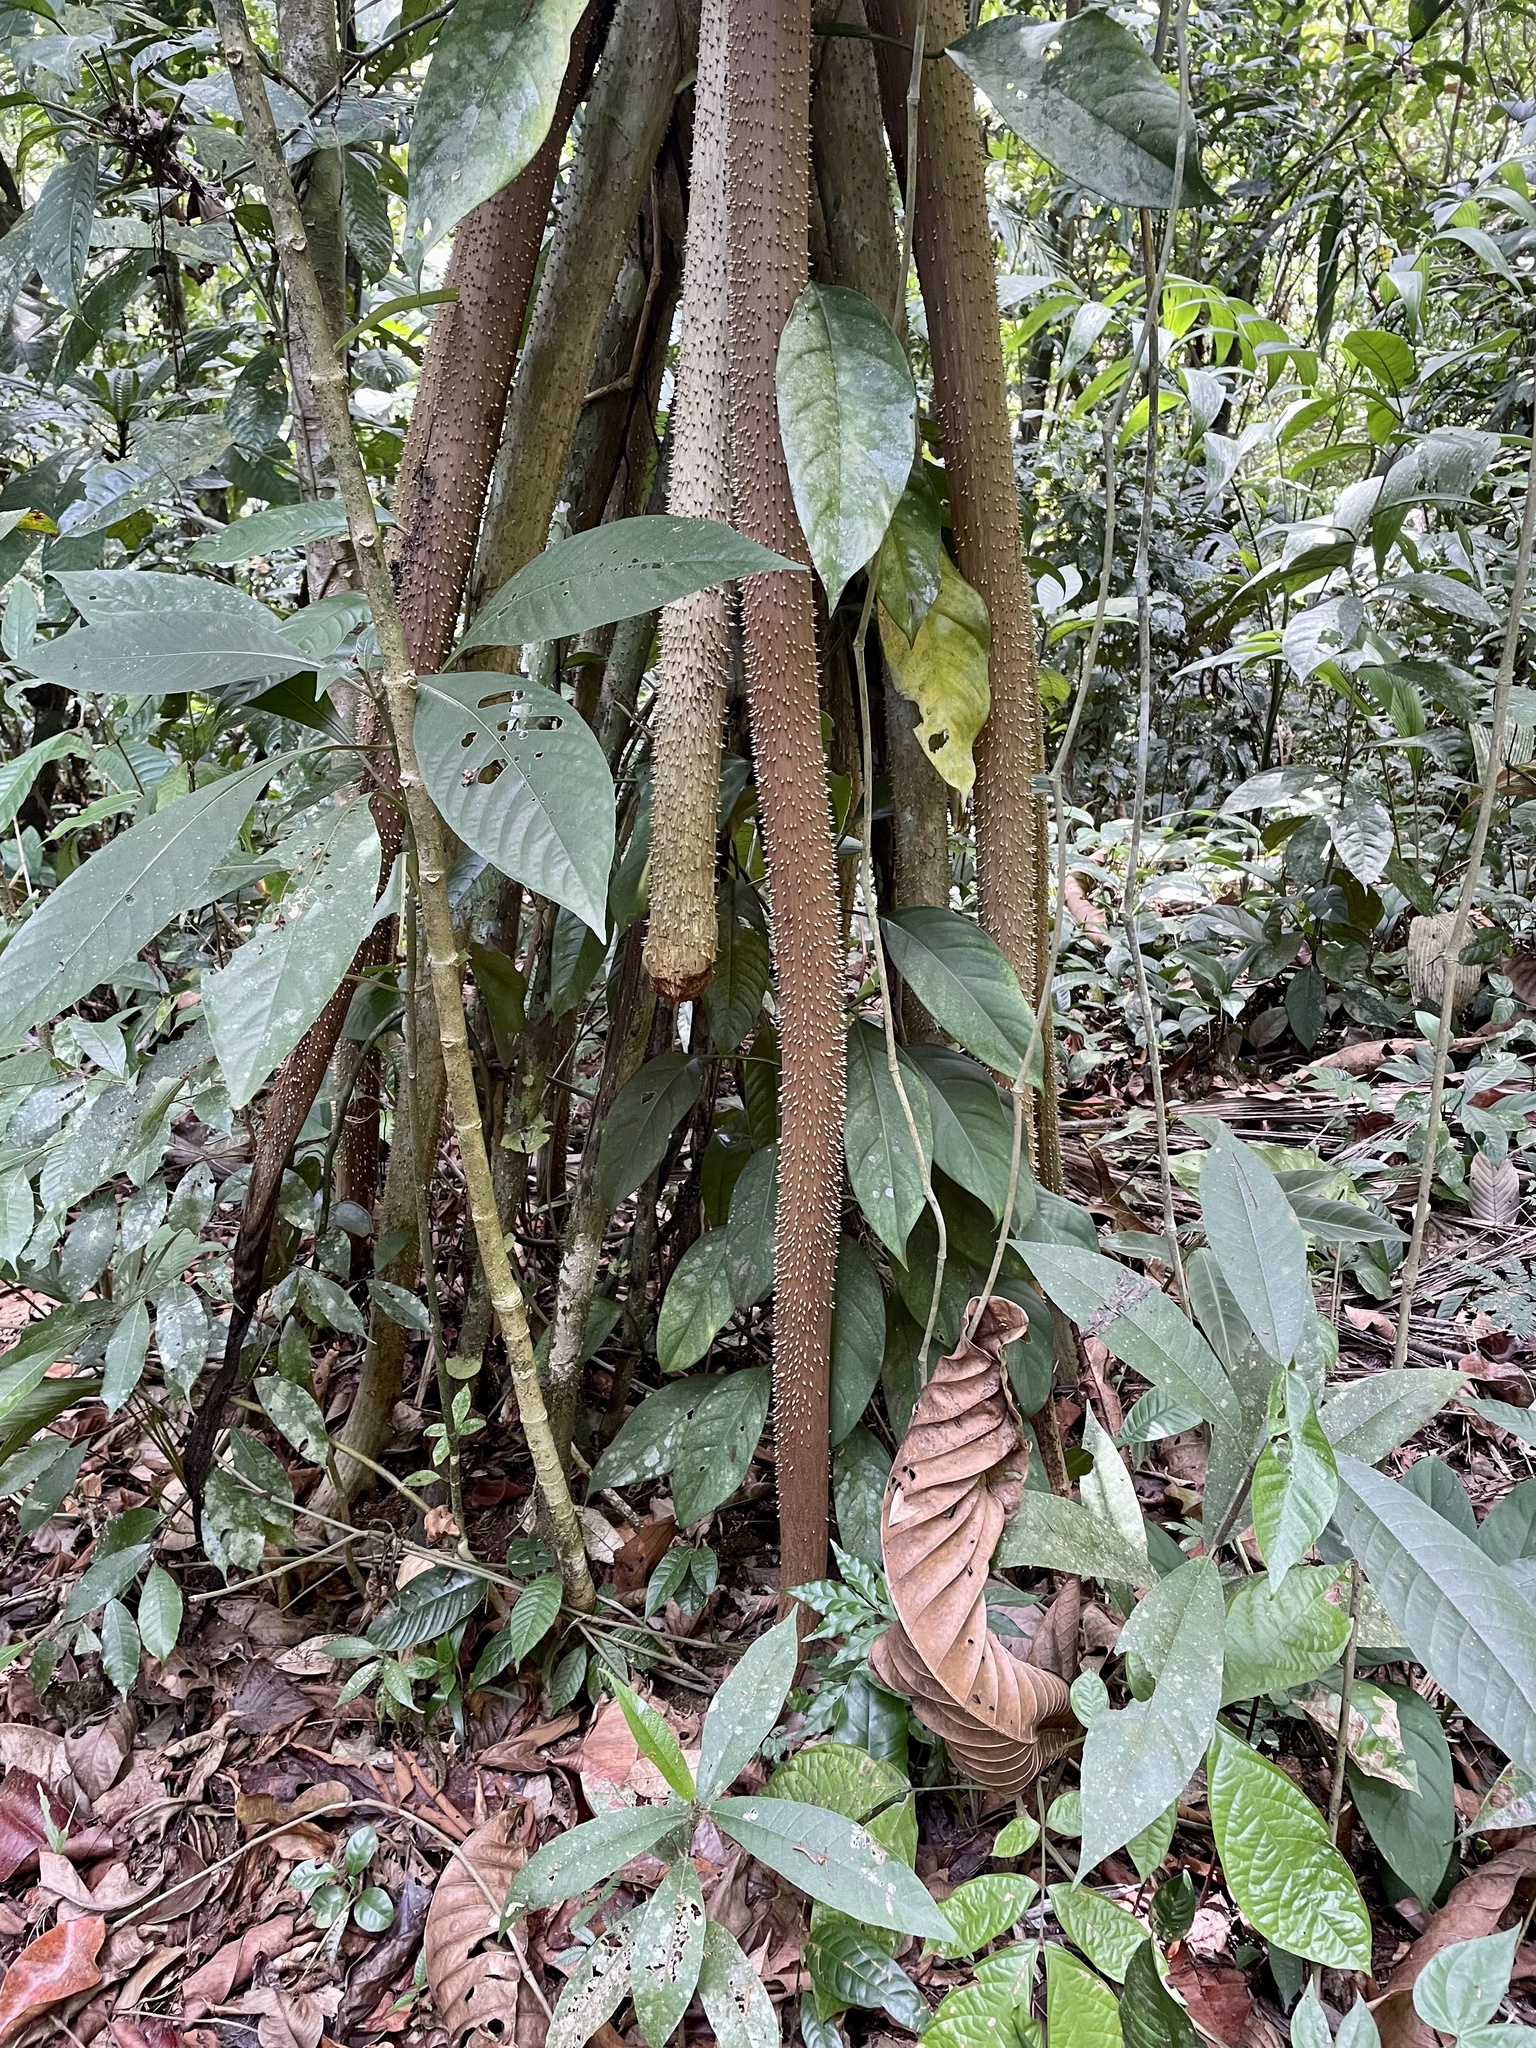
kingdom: Plantae
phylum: Tracheophyta
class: Liliopsida
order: Arecales
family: Arecaceae
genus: Socratea
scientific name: Socratea exorrhiza
